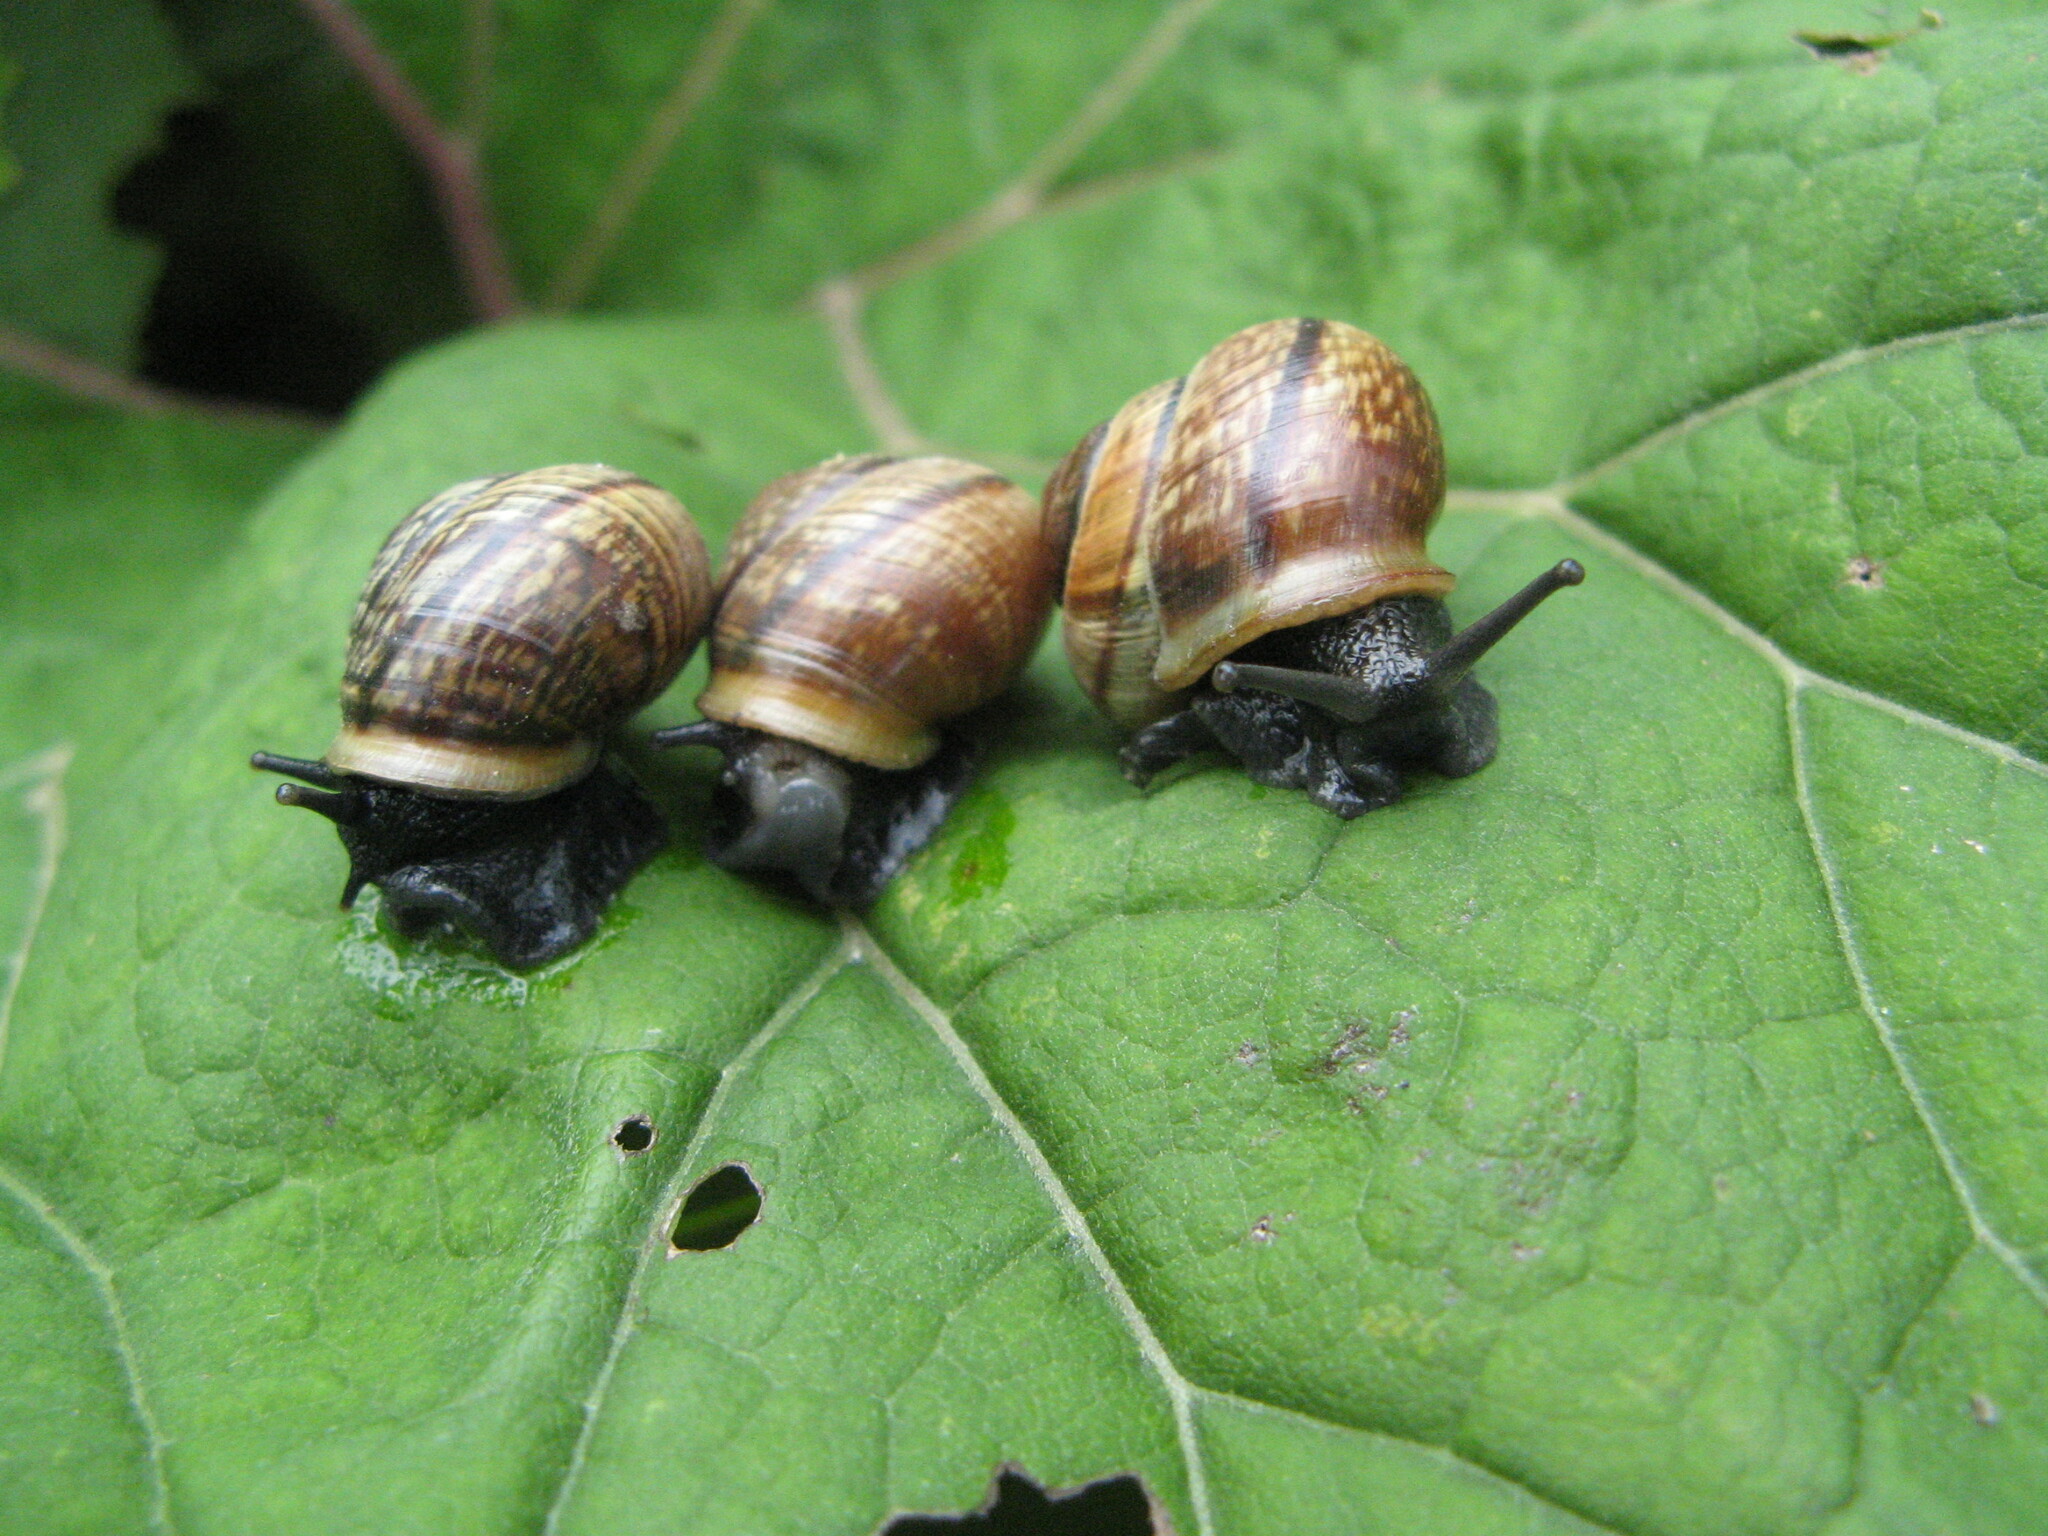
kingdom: Animalia
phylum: Mollusca
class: Gastropoda
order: Stylommatophora
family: Helicidae
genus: Arianta
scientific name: Arianta arbustorum
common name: Copse snail
